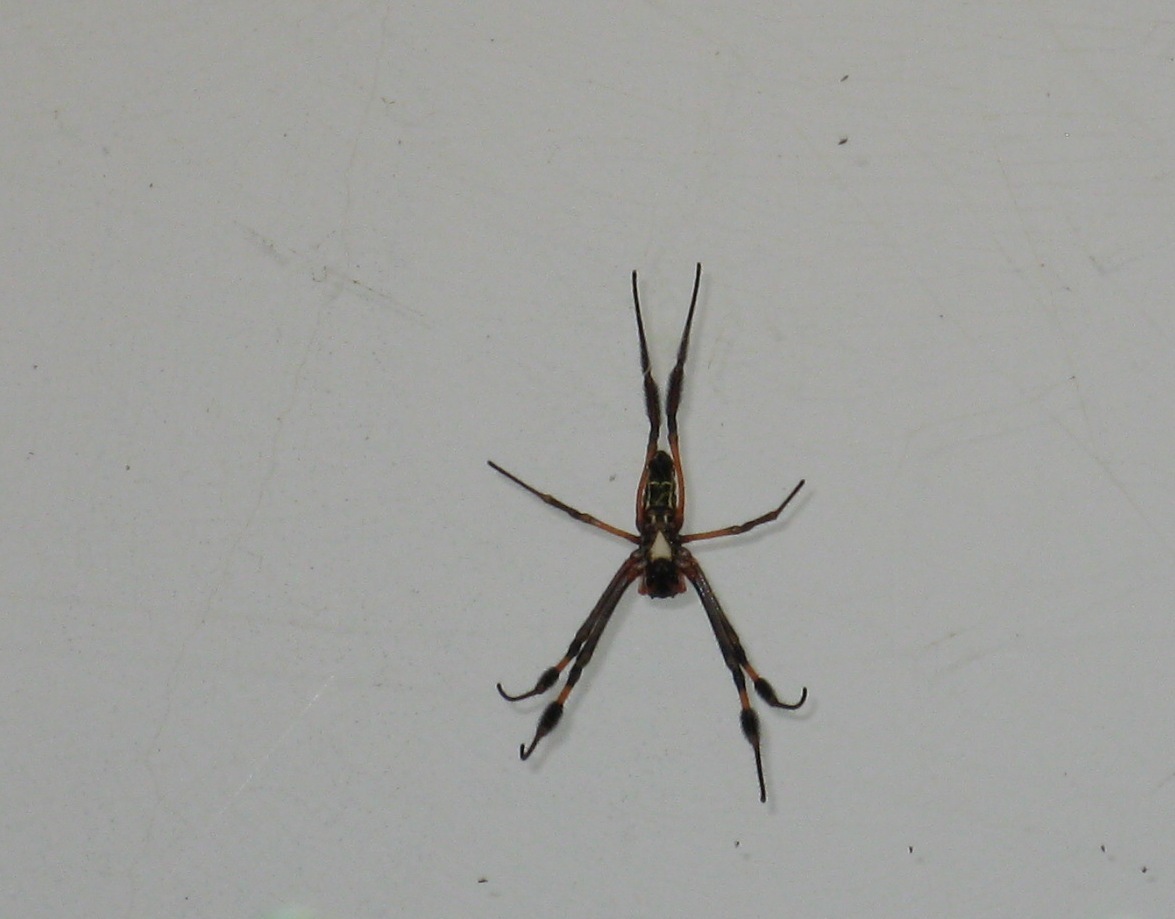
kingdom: Animalia
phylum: Arthropoda
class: Arachnida
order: Araneae
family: Araneidae
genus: Trichonephila
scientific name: Trichonephila senegalensis
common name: Banded golden orb weaver
